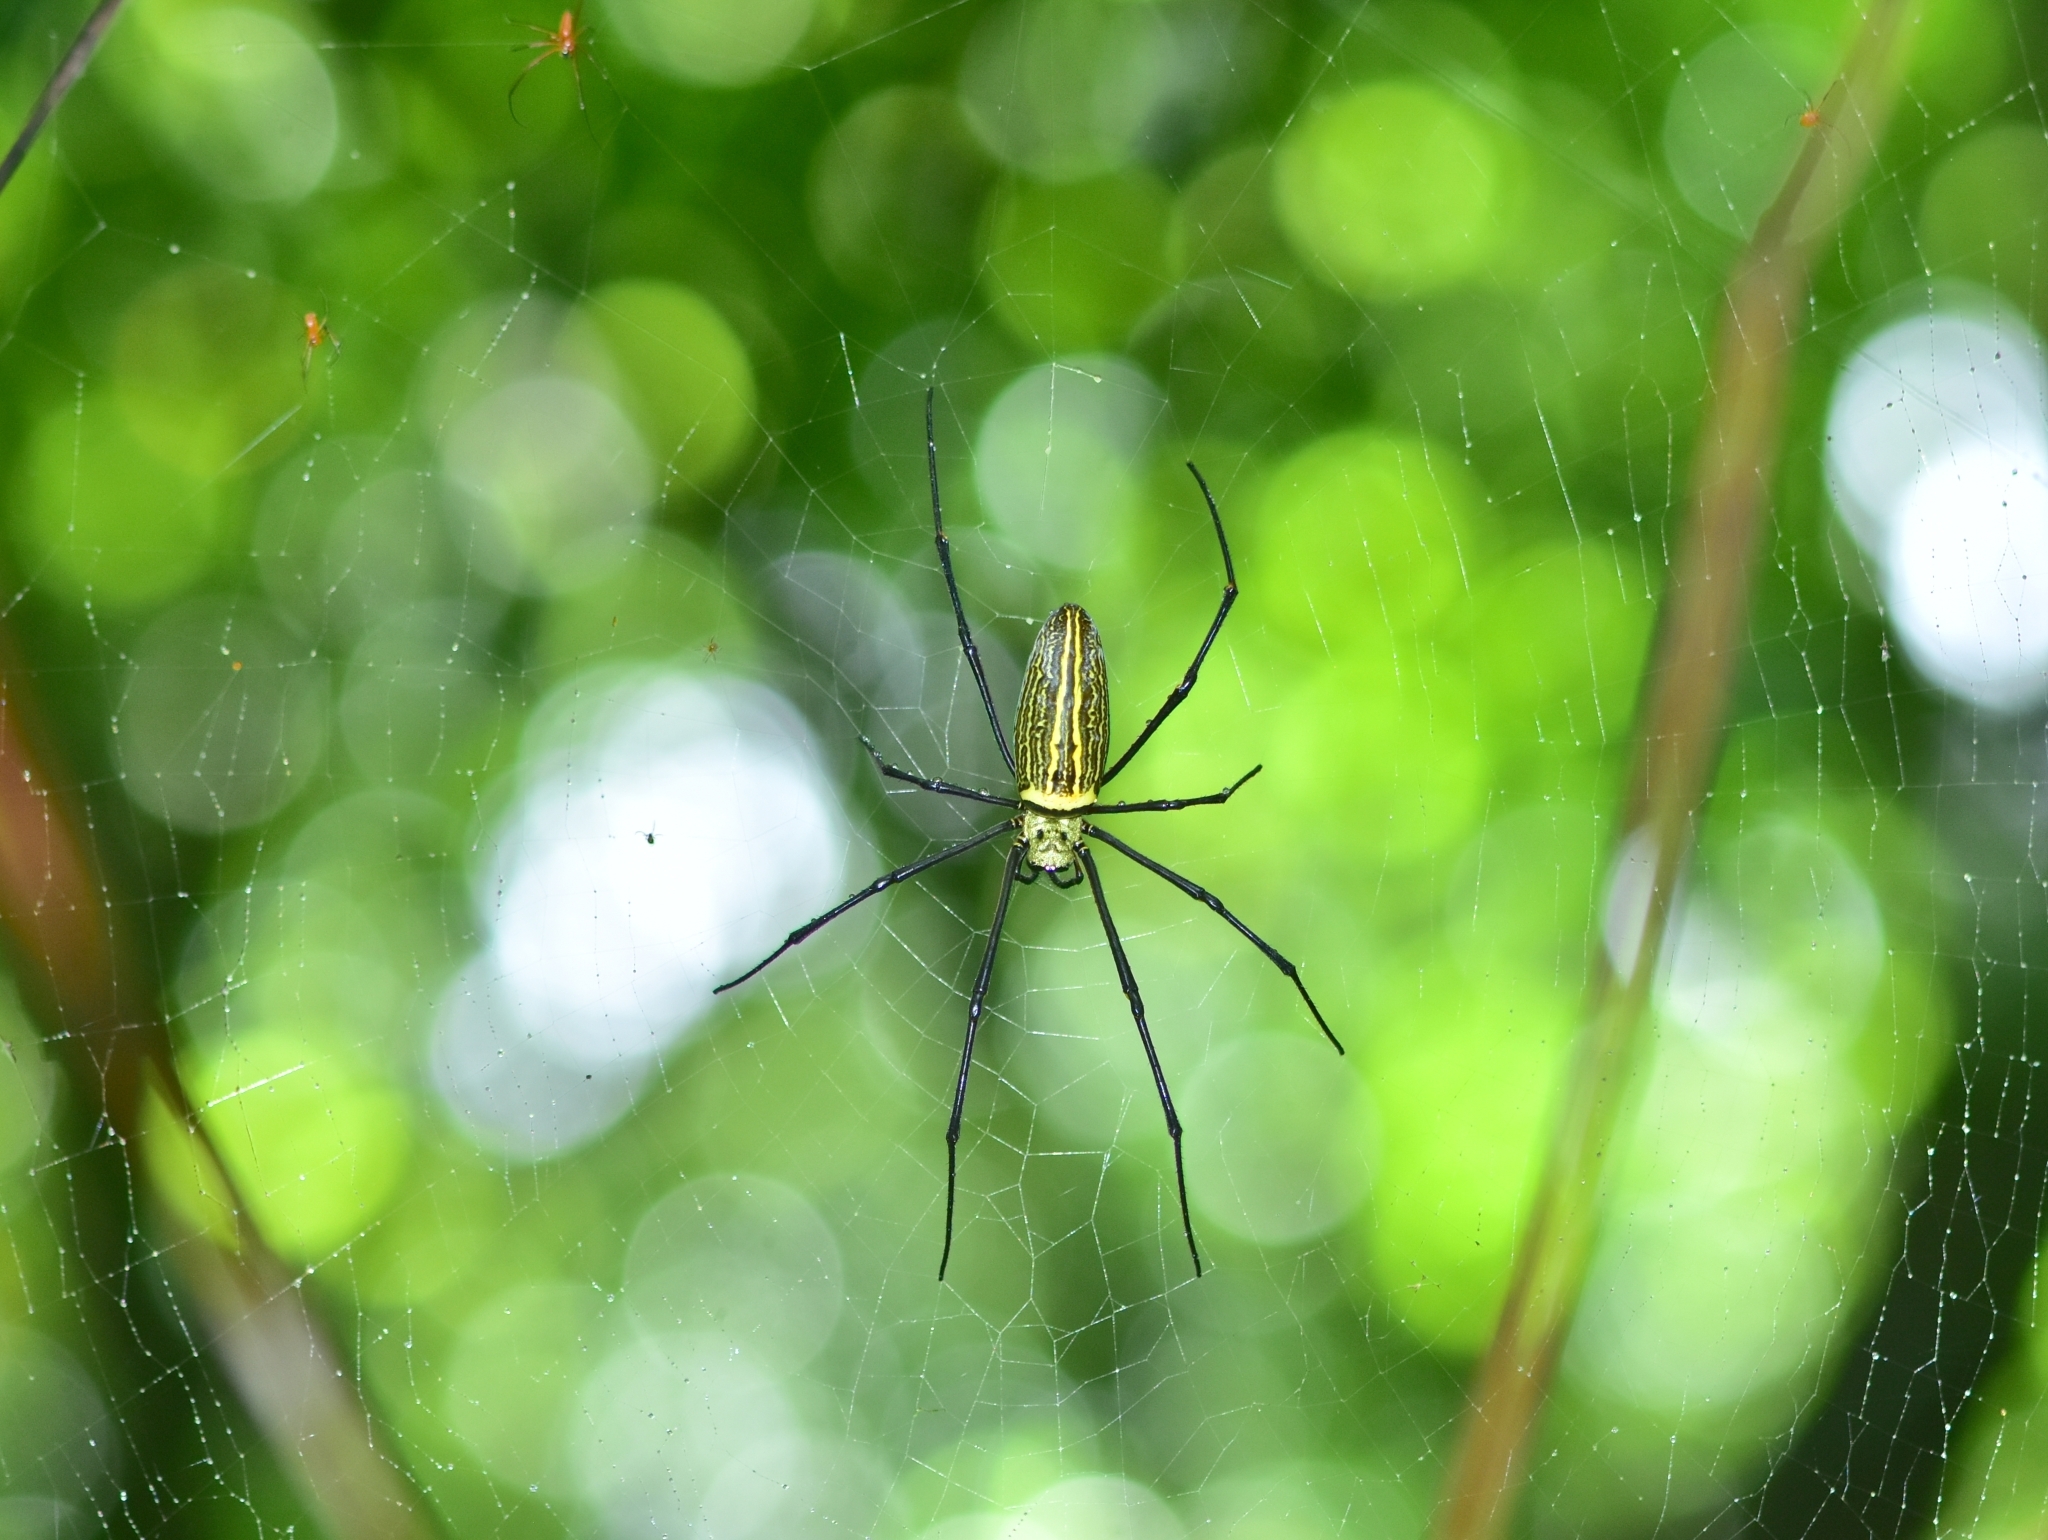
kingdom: Animalia
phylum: Arthropoda
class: Arachnida
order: Araneae
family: Araneidae
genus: Nephila
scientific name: Nephila pilipes
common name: Giant golden orb weaver
